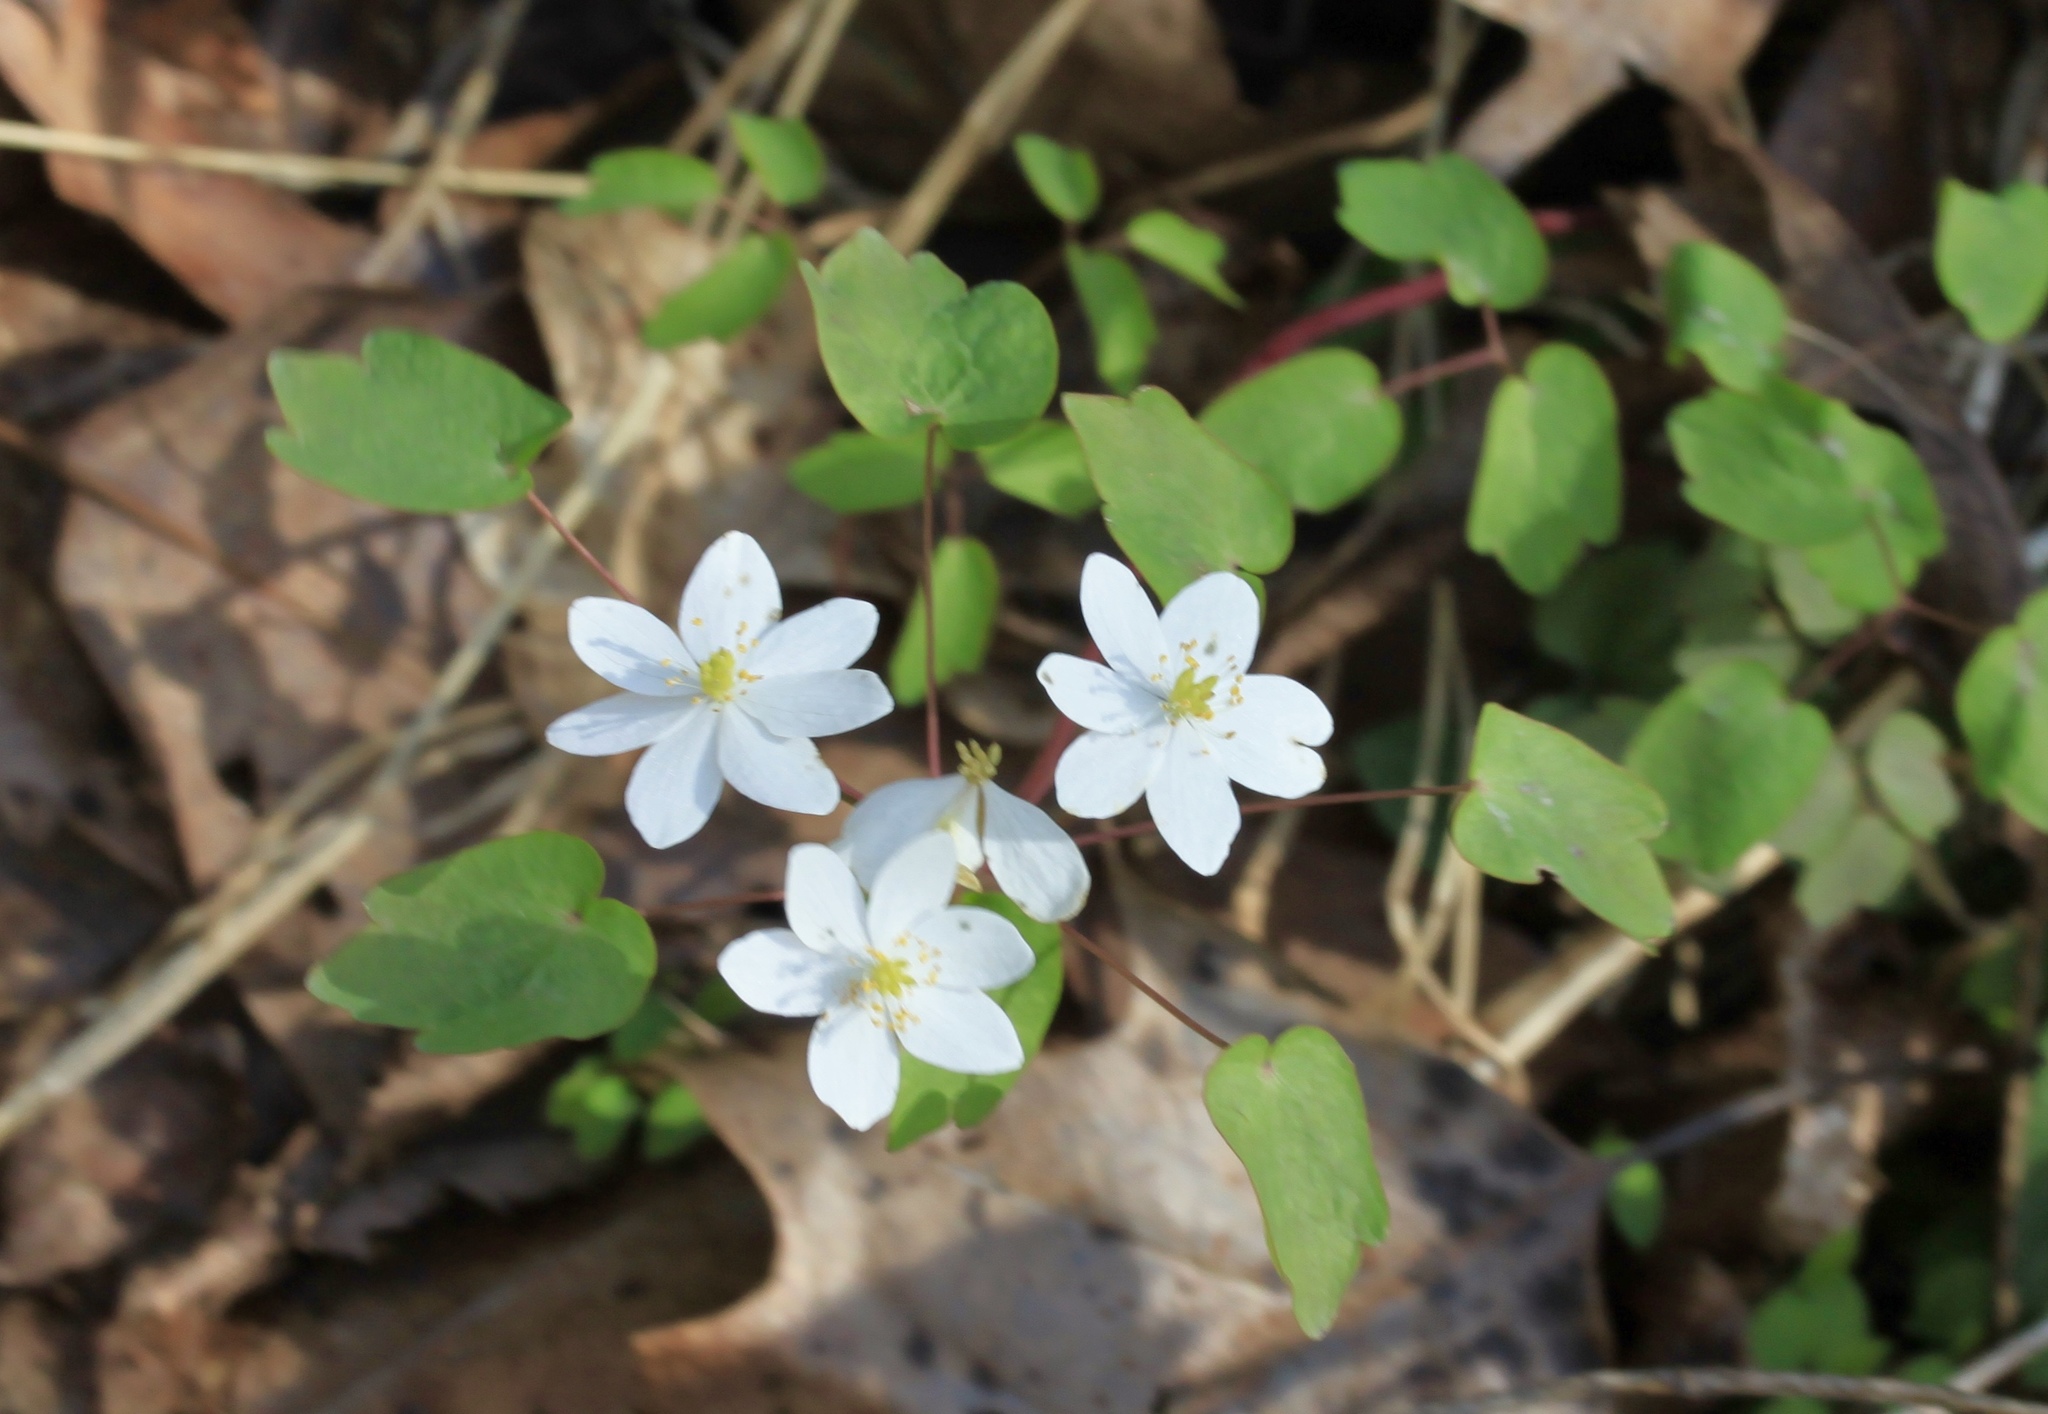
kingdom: Plantae
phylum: Tracheophyta
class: Magnoliopsida
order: Ranunculales
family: Ranunculaceae
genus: Thalictrum
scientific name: Thalictrum thalictroides
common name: Rue-anemone
